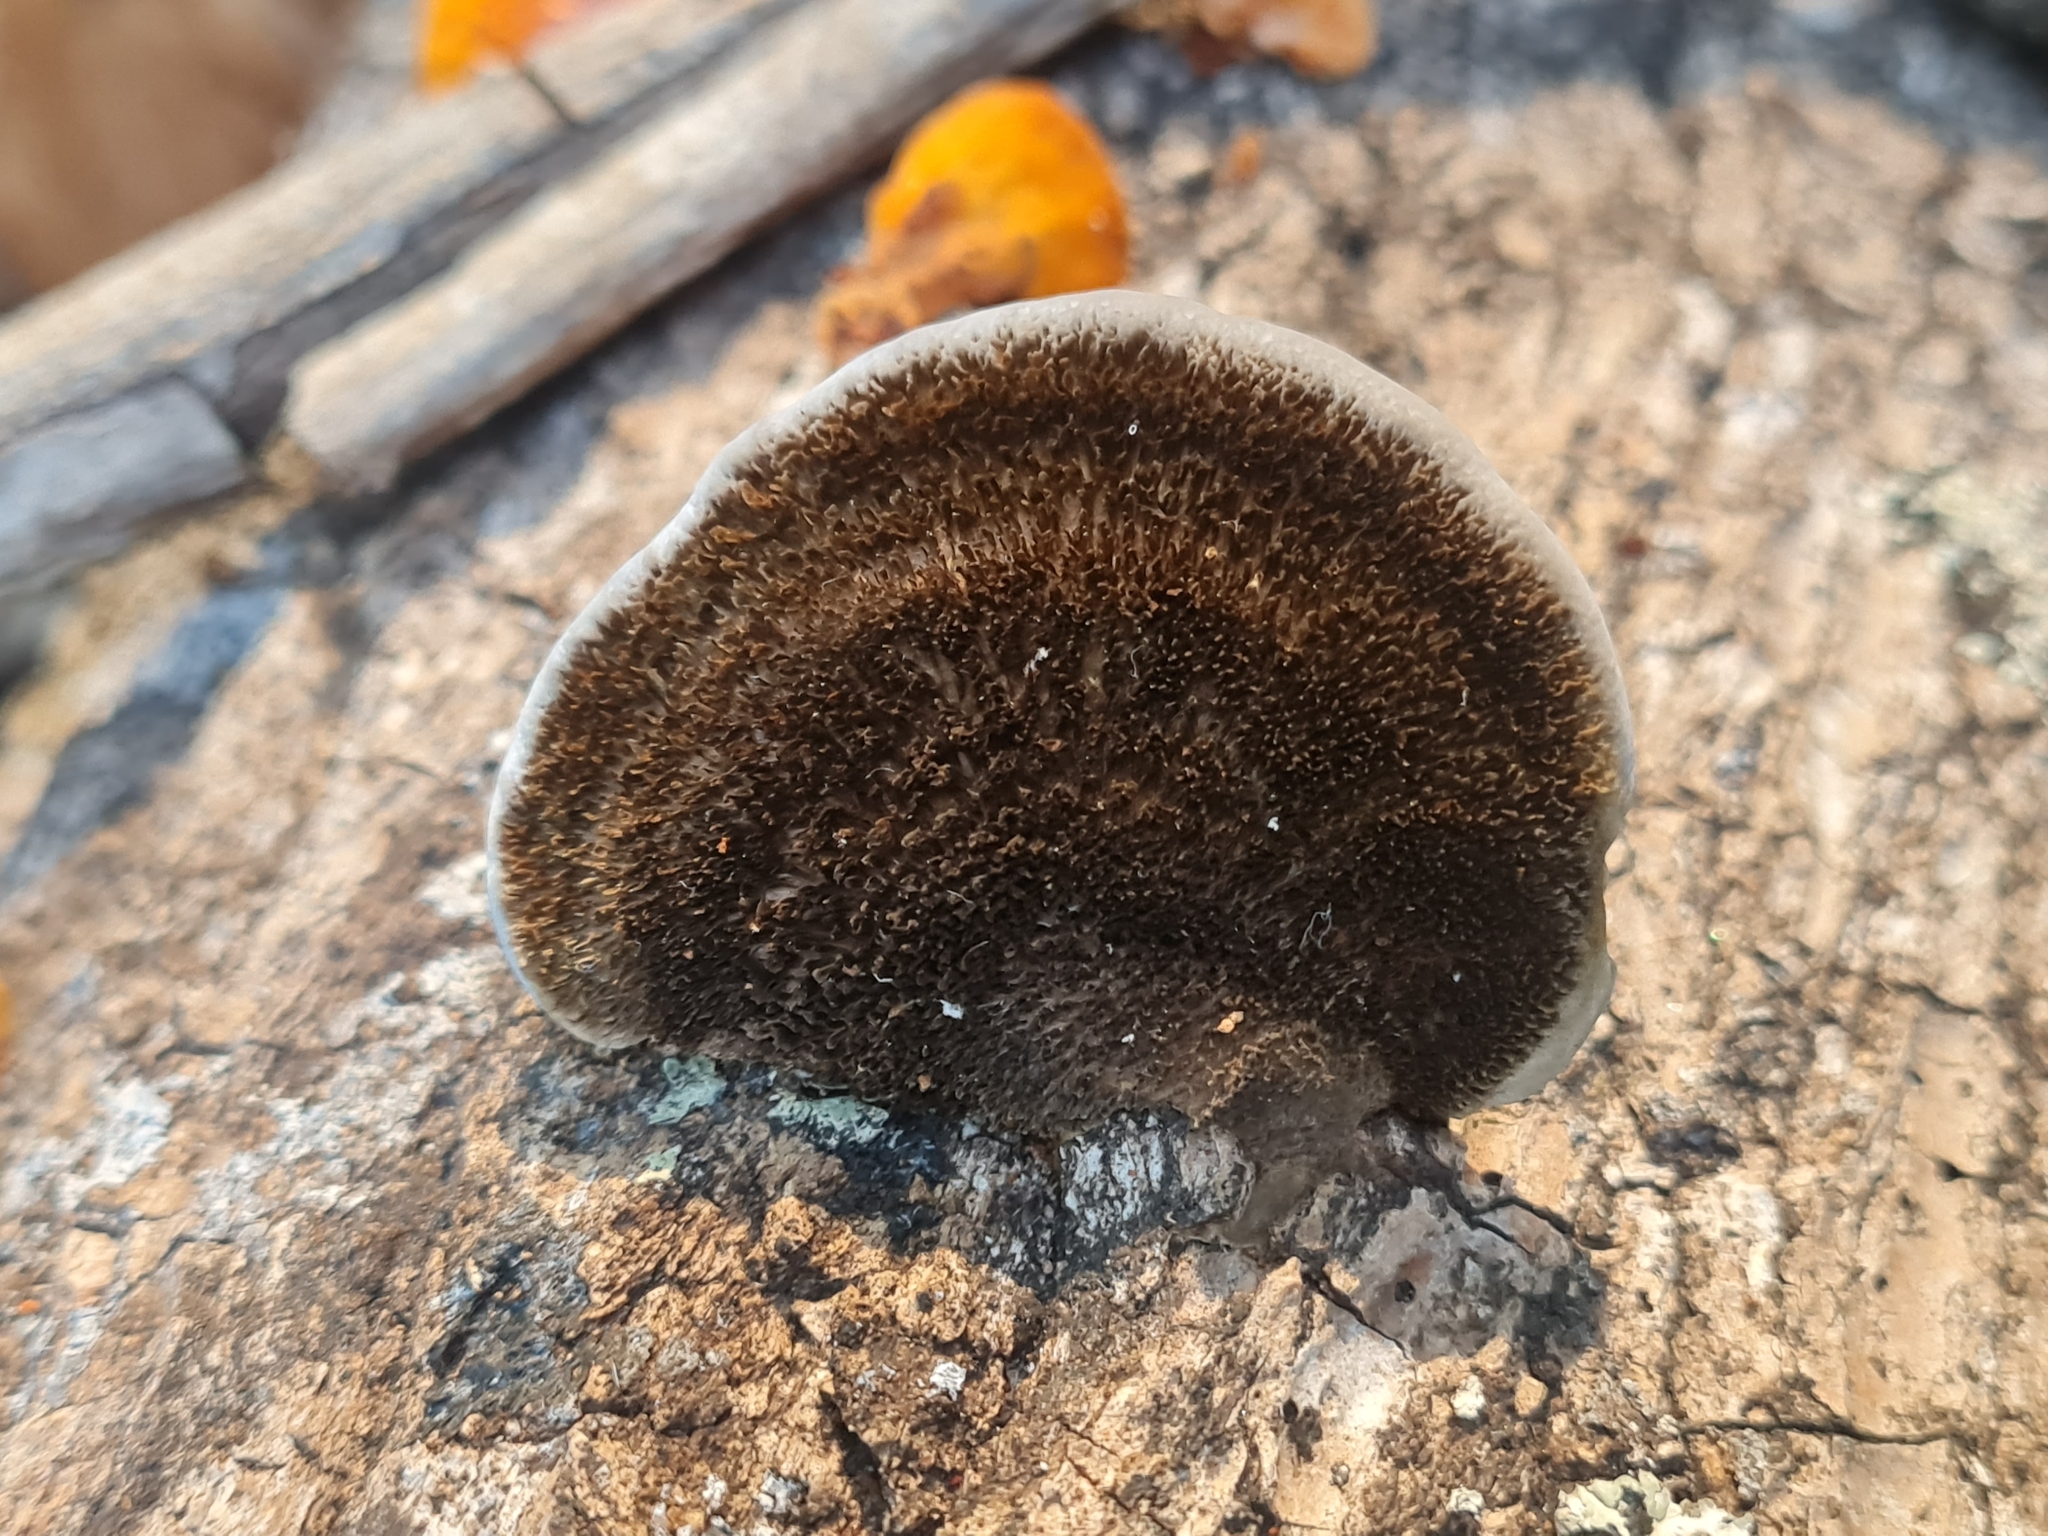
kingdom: Fungi
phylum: Basidiomycota
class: Agaricomycetes
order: Polyporales
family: Cerrenaceae
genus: Cerrena
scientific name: Cerrena hydnoides
